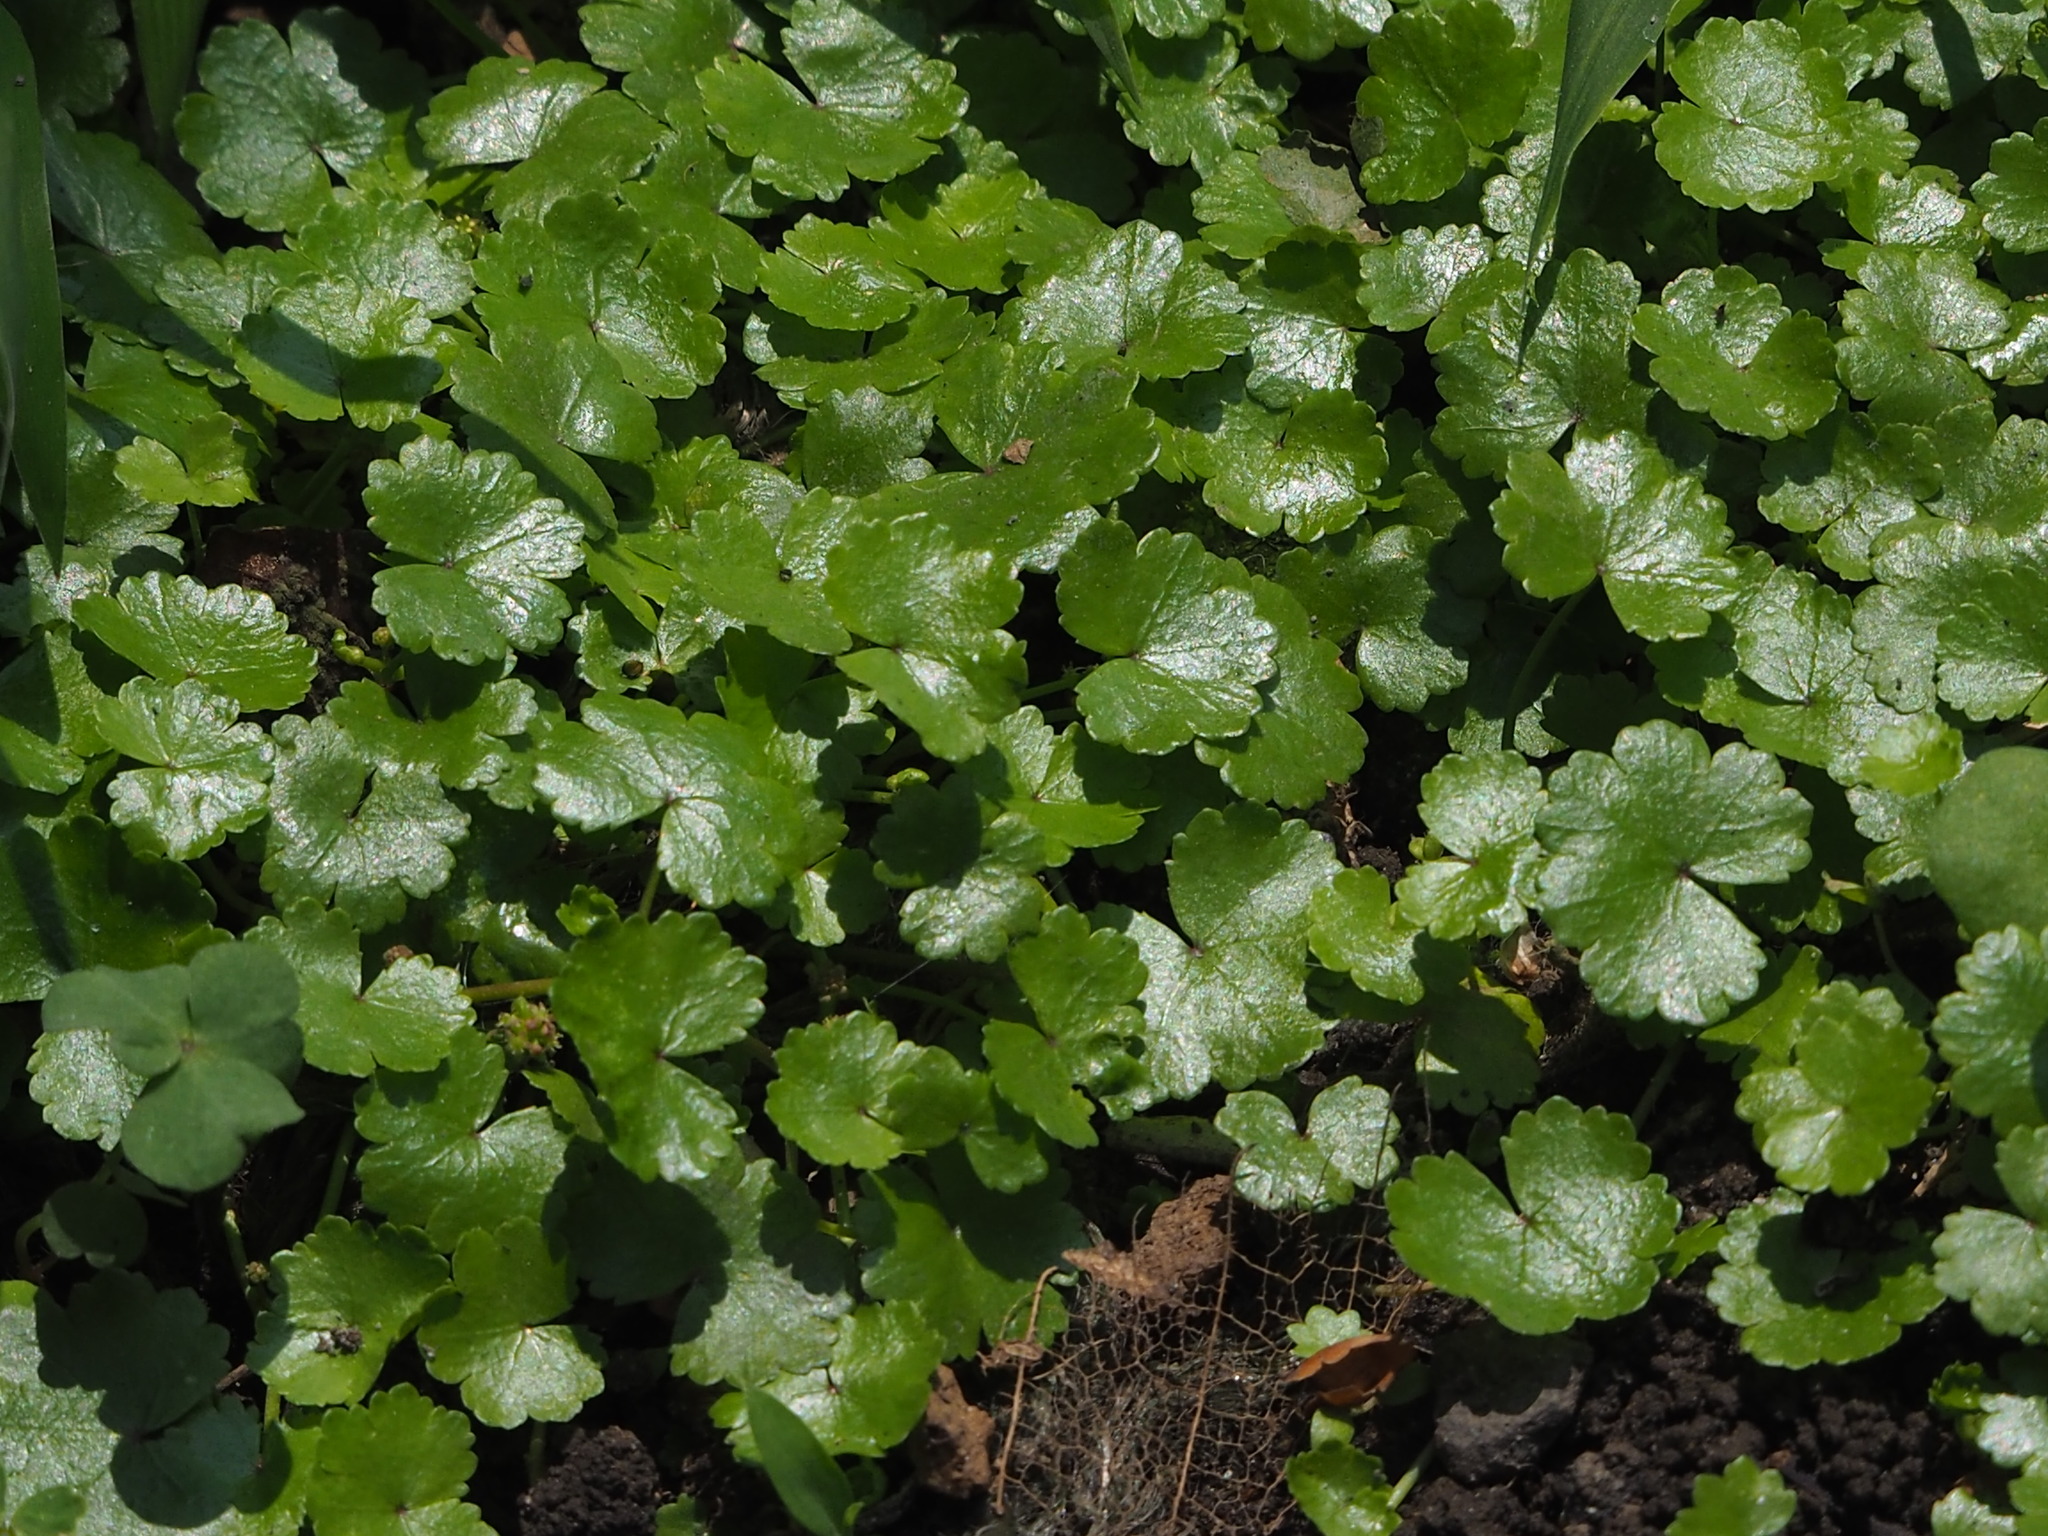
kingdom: Plantae
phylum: Tracheophyta
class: Magnoliopsida
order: Apiales
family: Araliaceae
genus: Hydrocotyle
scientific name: Hydrocotyle sibthorpioides
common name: Lawn marshpennywort
